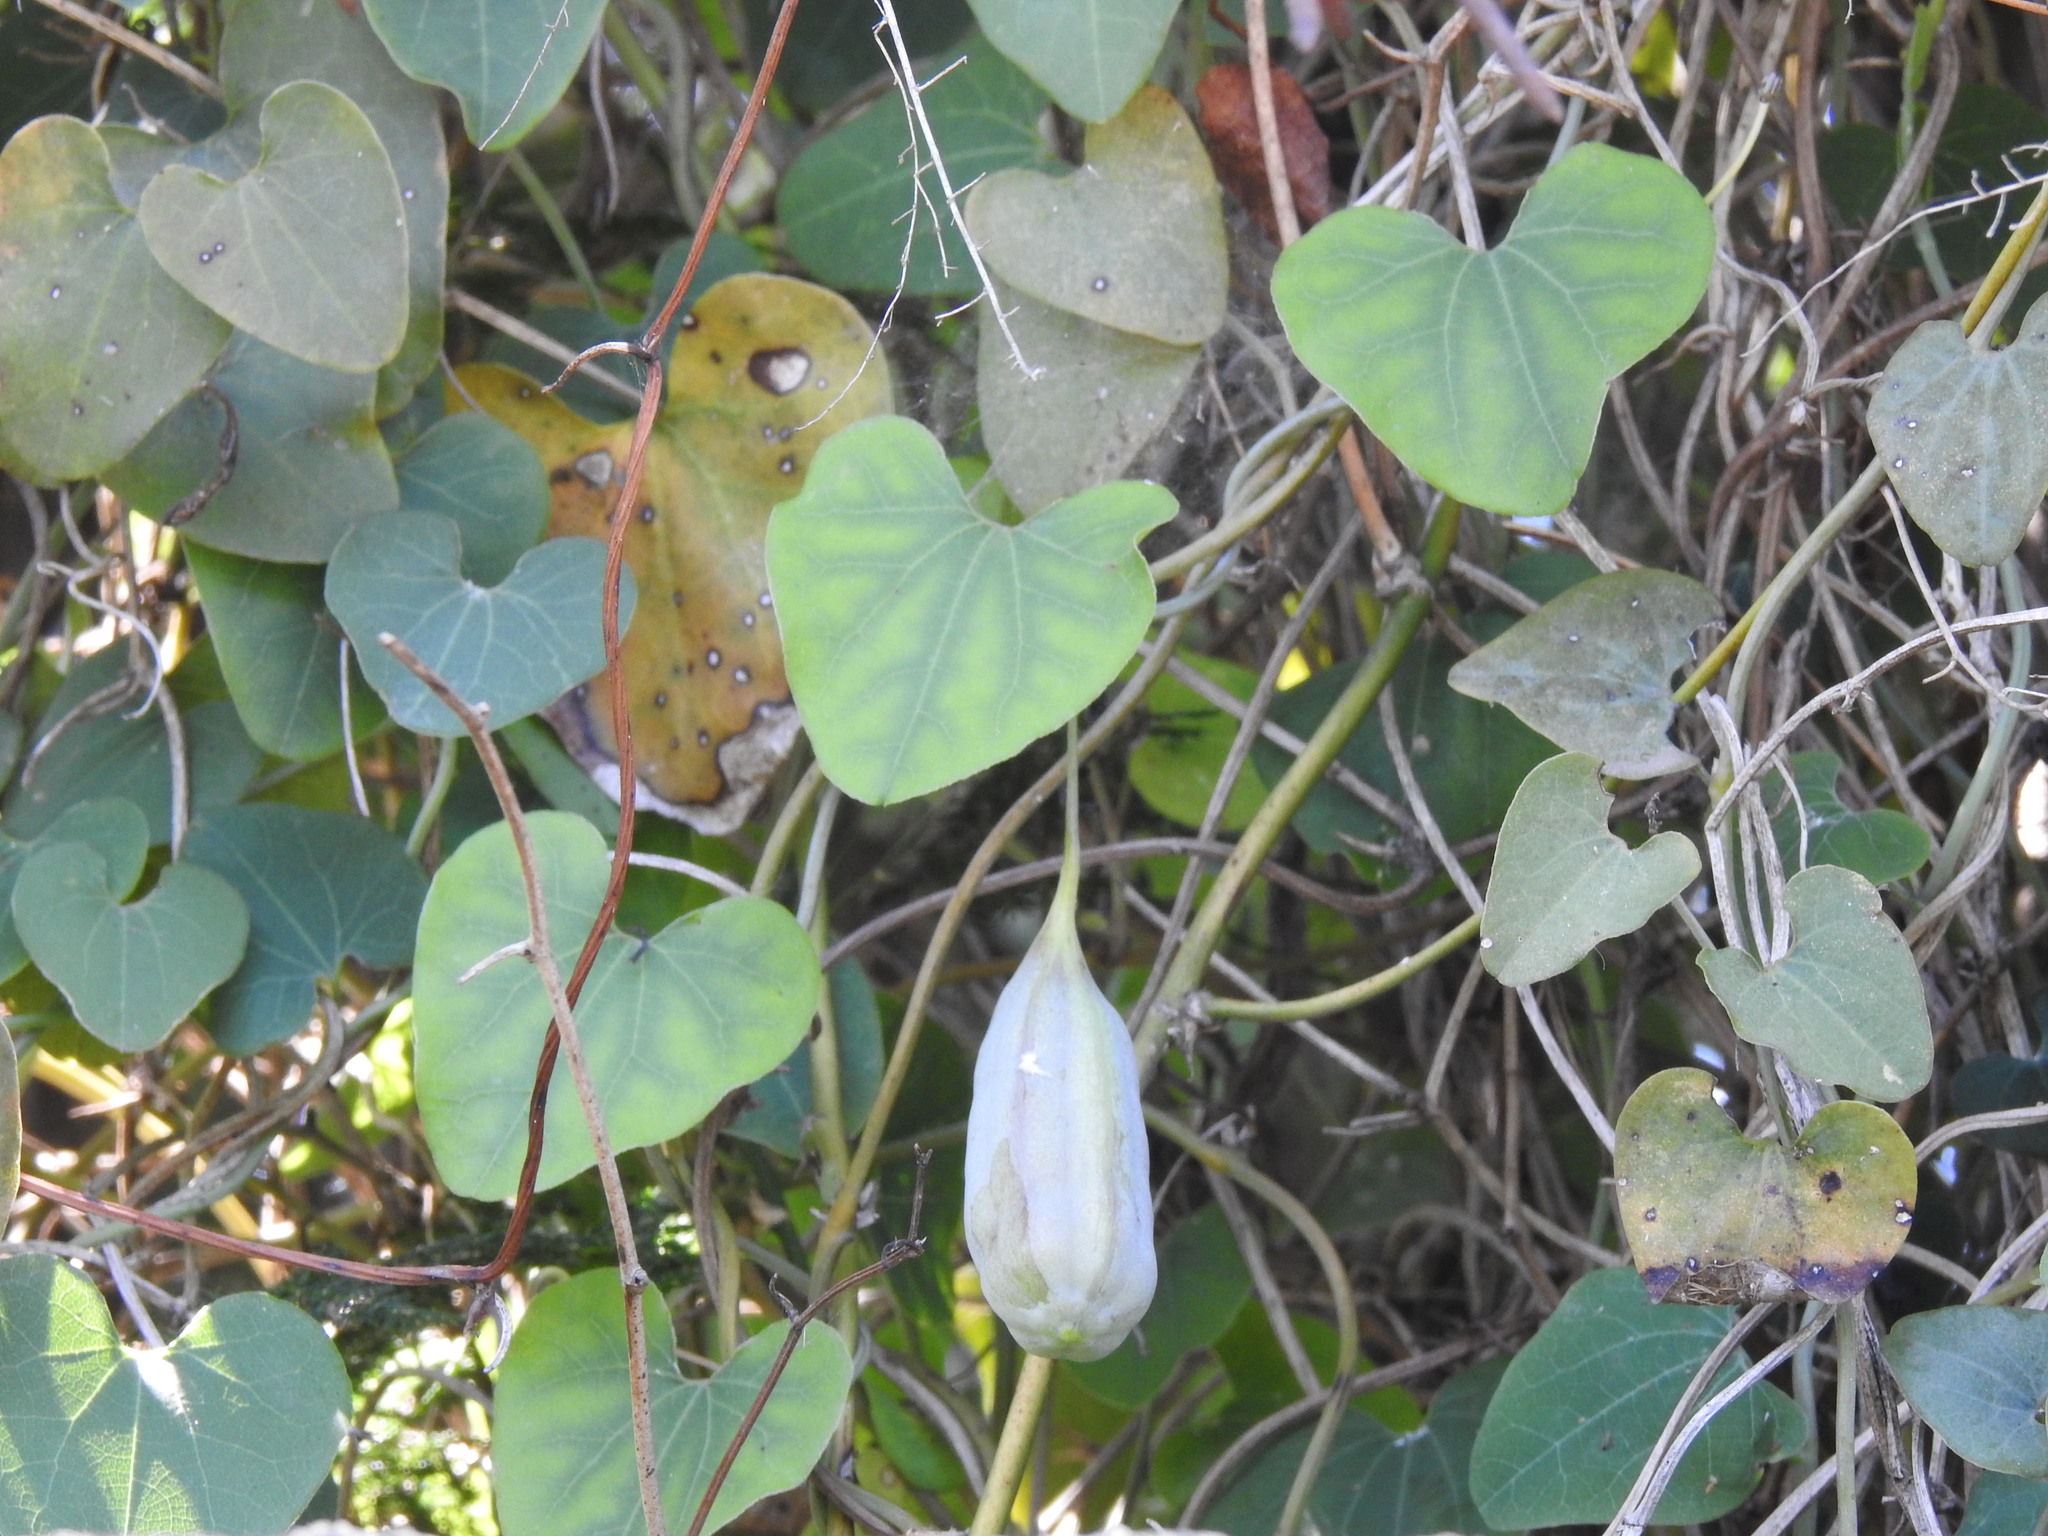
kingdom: Plantae
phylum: Tracheophyta
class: Magnoliopsida
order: Piperales
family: Aristolochiaceae
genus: Aristolochia
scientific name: Aristolochia baetica
